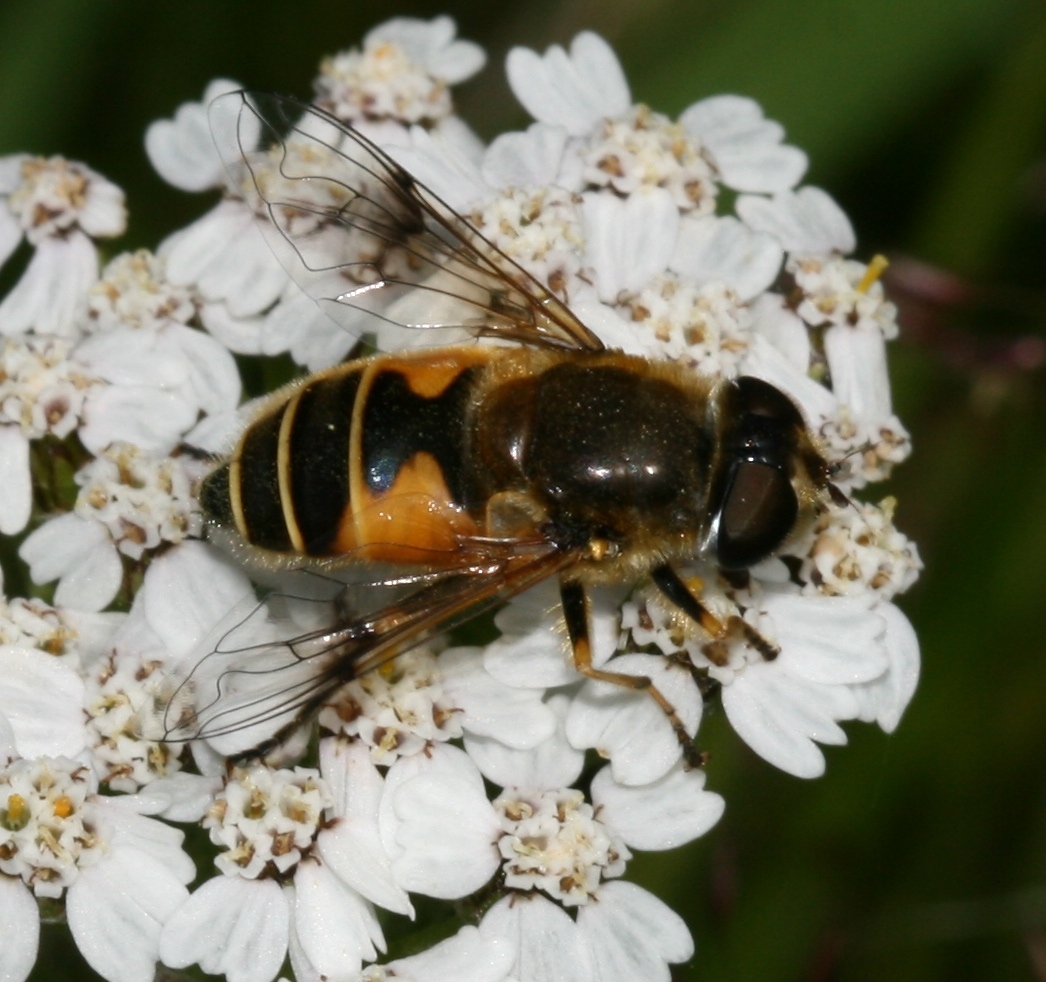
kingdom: Animalia
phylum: Arthropoda
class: Insecta
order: Diptera
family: Syrphidae
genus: Cheilosia
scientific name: Cheilosia morio
